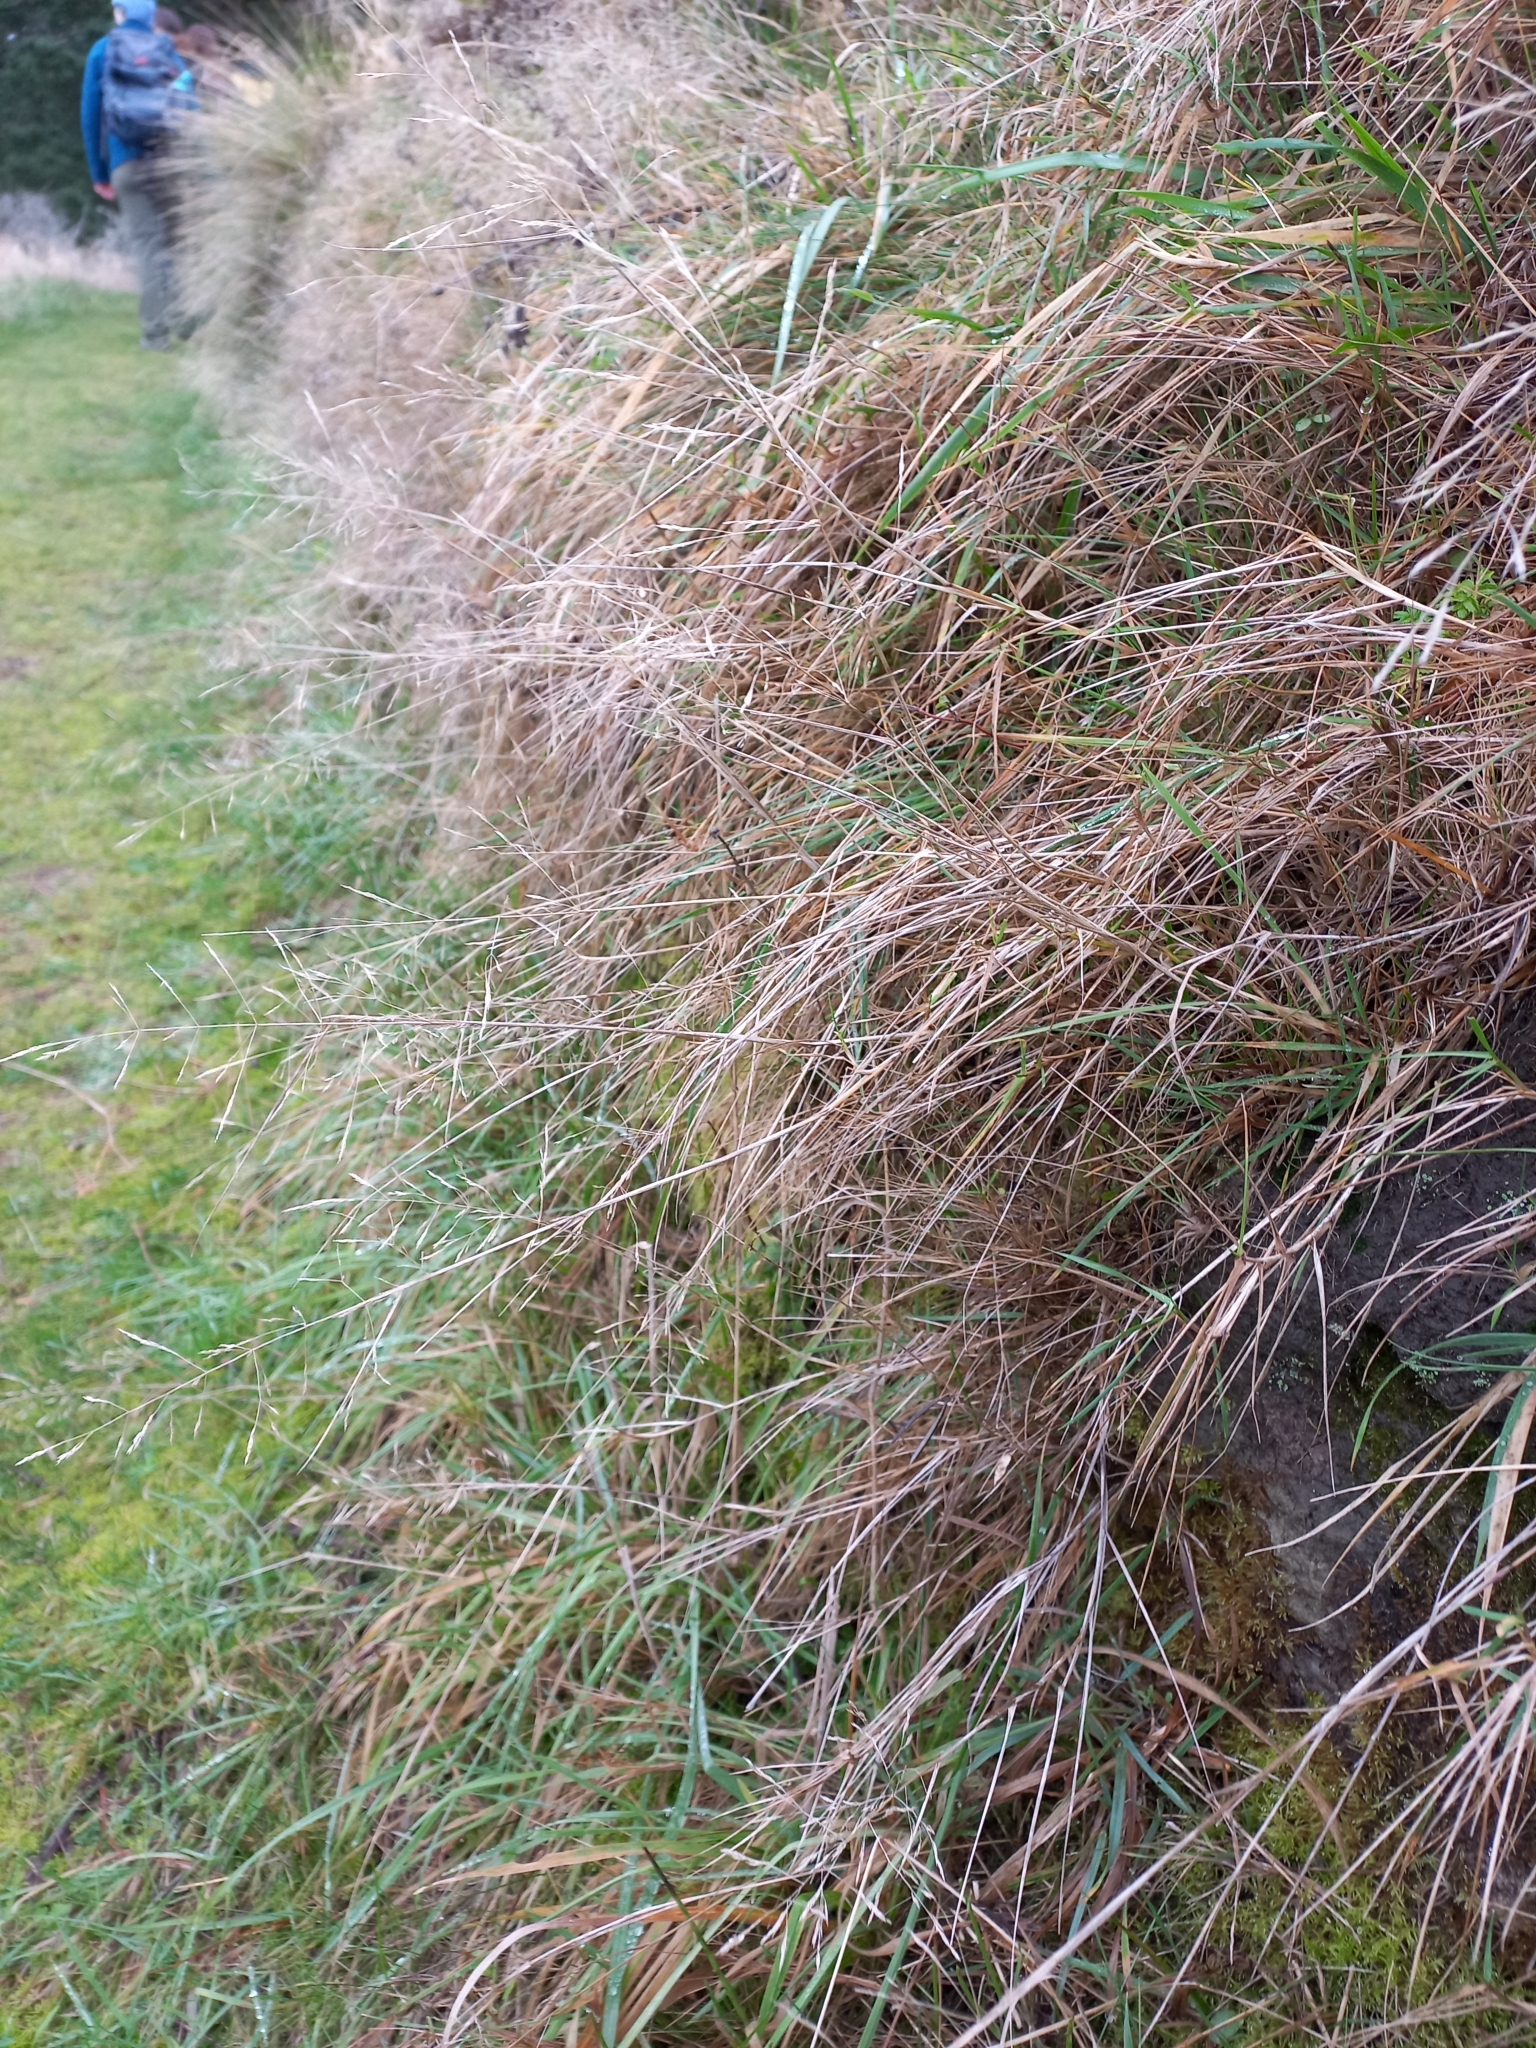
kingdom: Plantae
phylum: Tracheophyta
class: Liliopsida
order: Poales
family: Poaceae
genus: Agrostis
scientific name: Agrostis capillaris
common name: Colonial bentgrass
